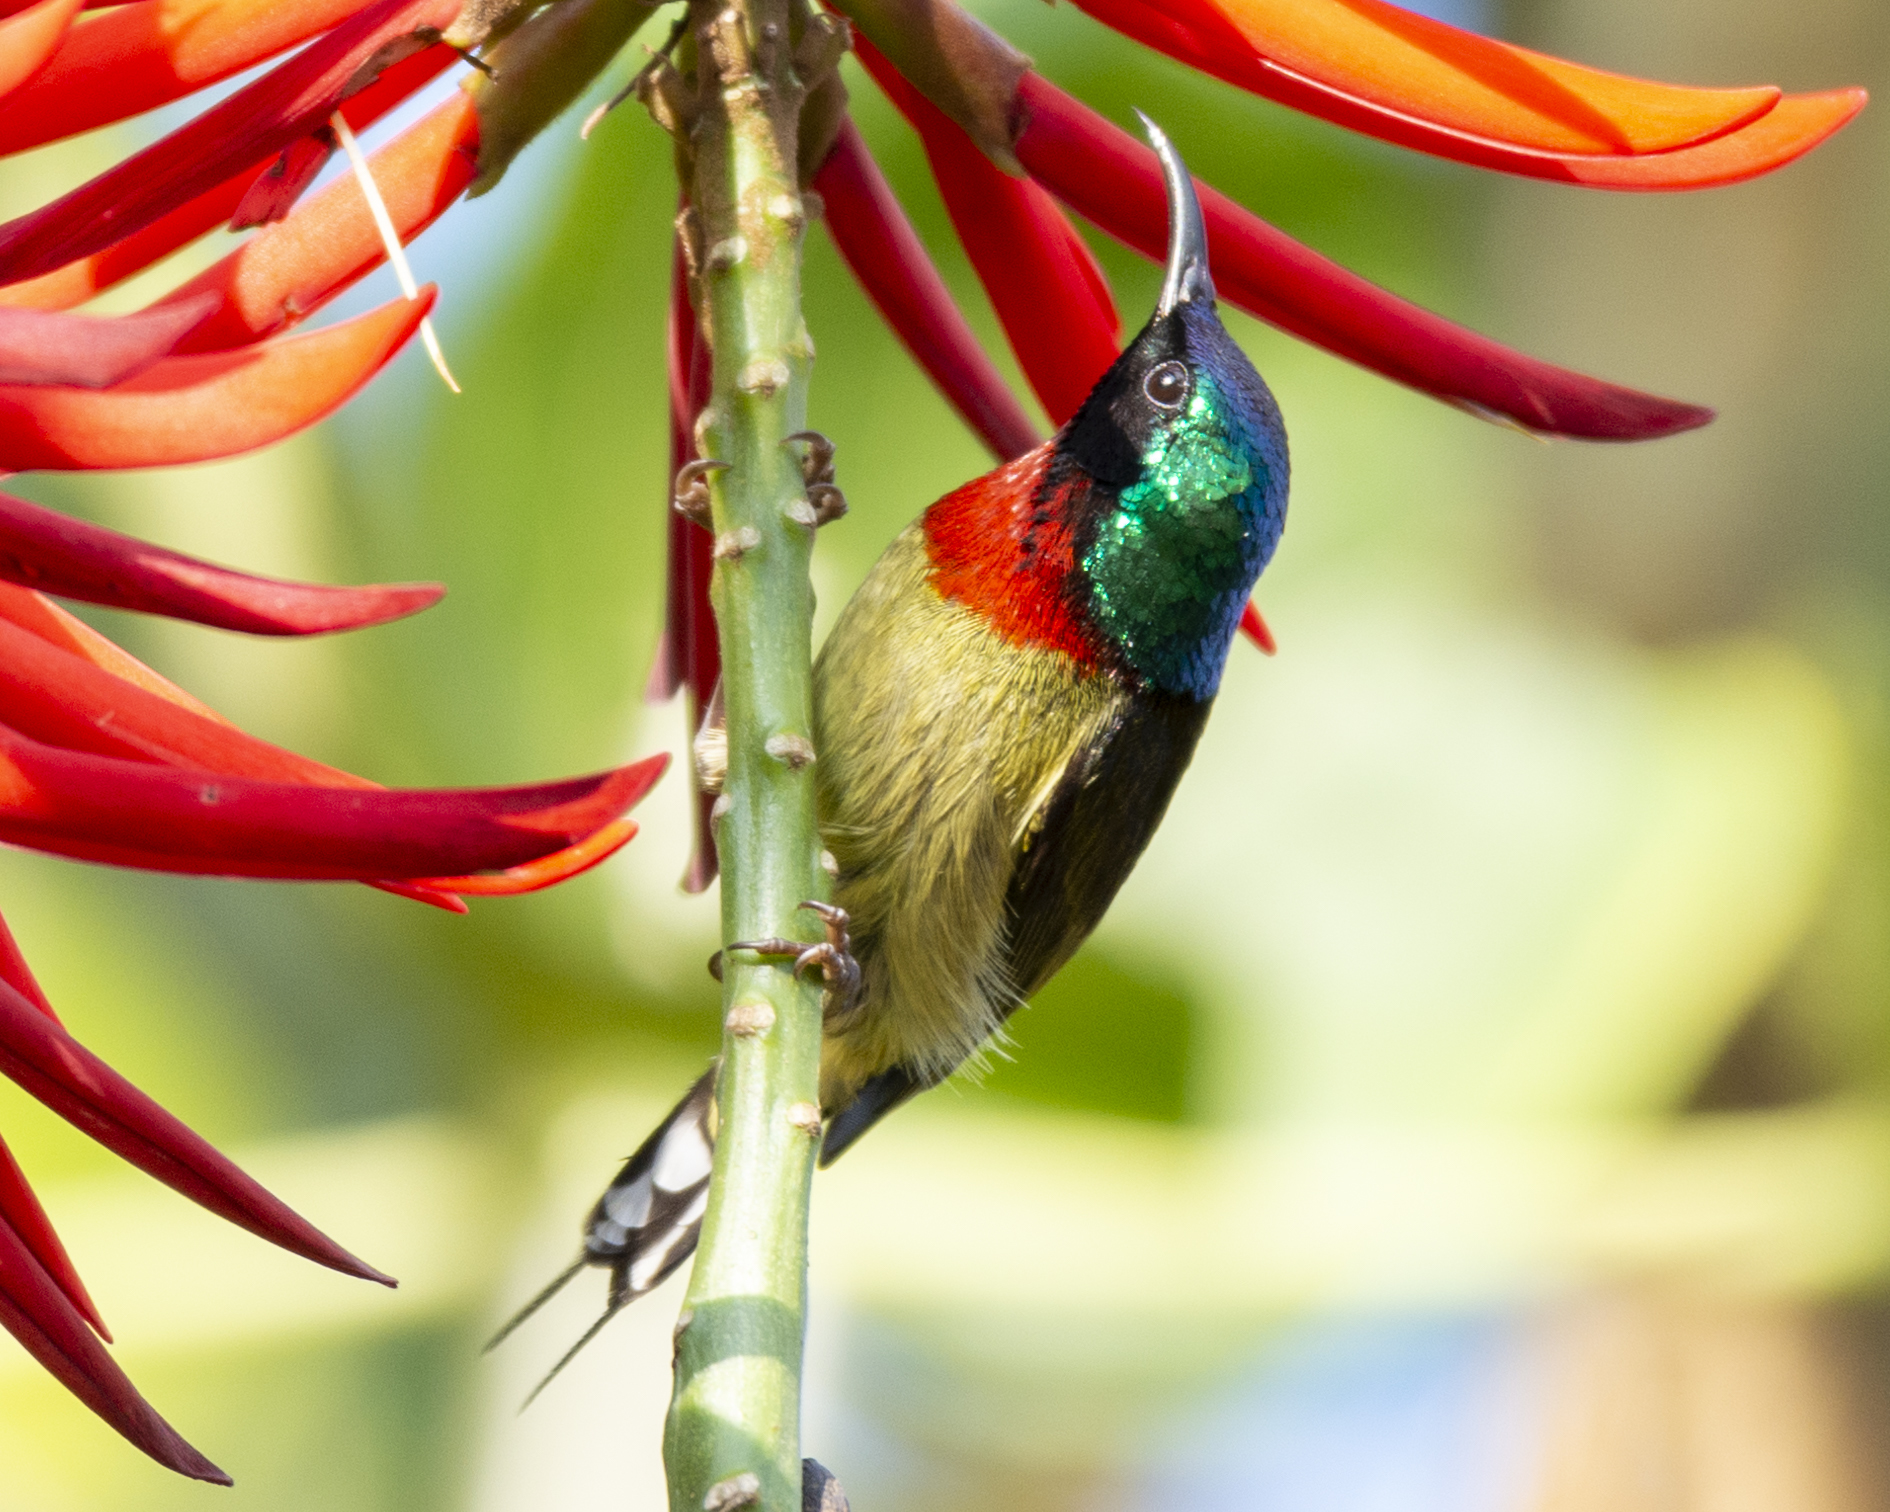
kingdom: Animalia
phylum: Chordata
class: Aves
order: Passeriformes
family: Nectariniidae
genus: Aethopyga
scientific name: Aethopyga christinae
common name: Fork-tailed sunbird
